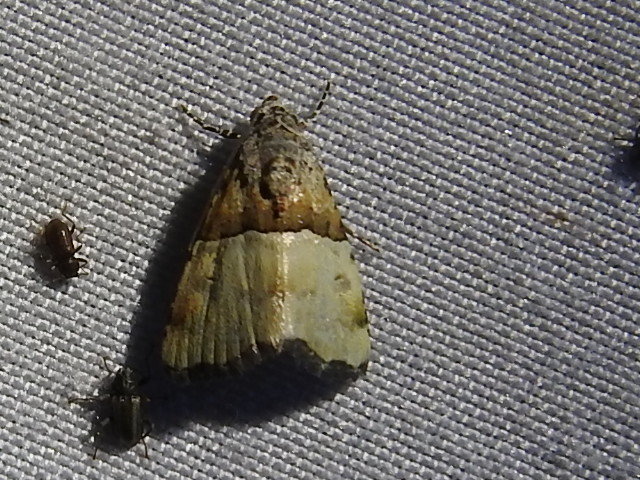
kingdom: Animalia
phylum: Arthropoda
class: Insecta
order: Lepidoptera
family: Noctuidae
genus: Cobubatha
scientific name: Cobubatha dividua
